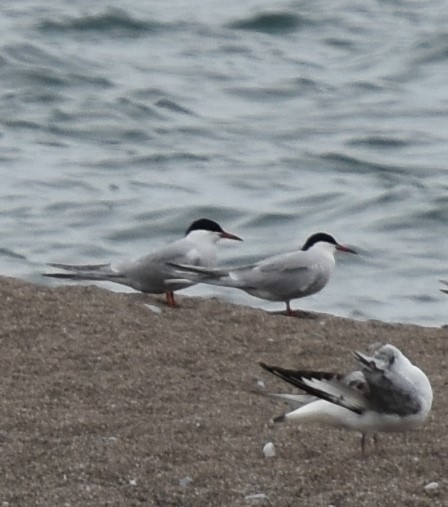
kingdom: Animalia
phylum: Chordata
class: Aves
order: Charadriiformes
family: Laridae
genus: Sterna
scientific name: Sterna hirundo
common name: Common tern
